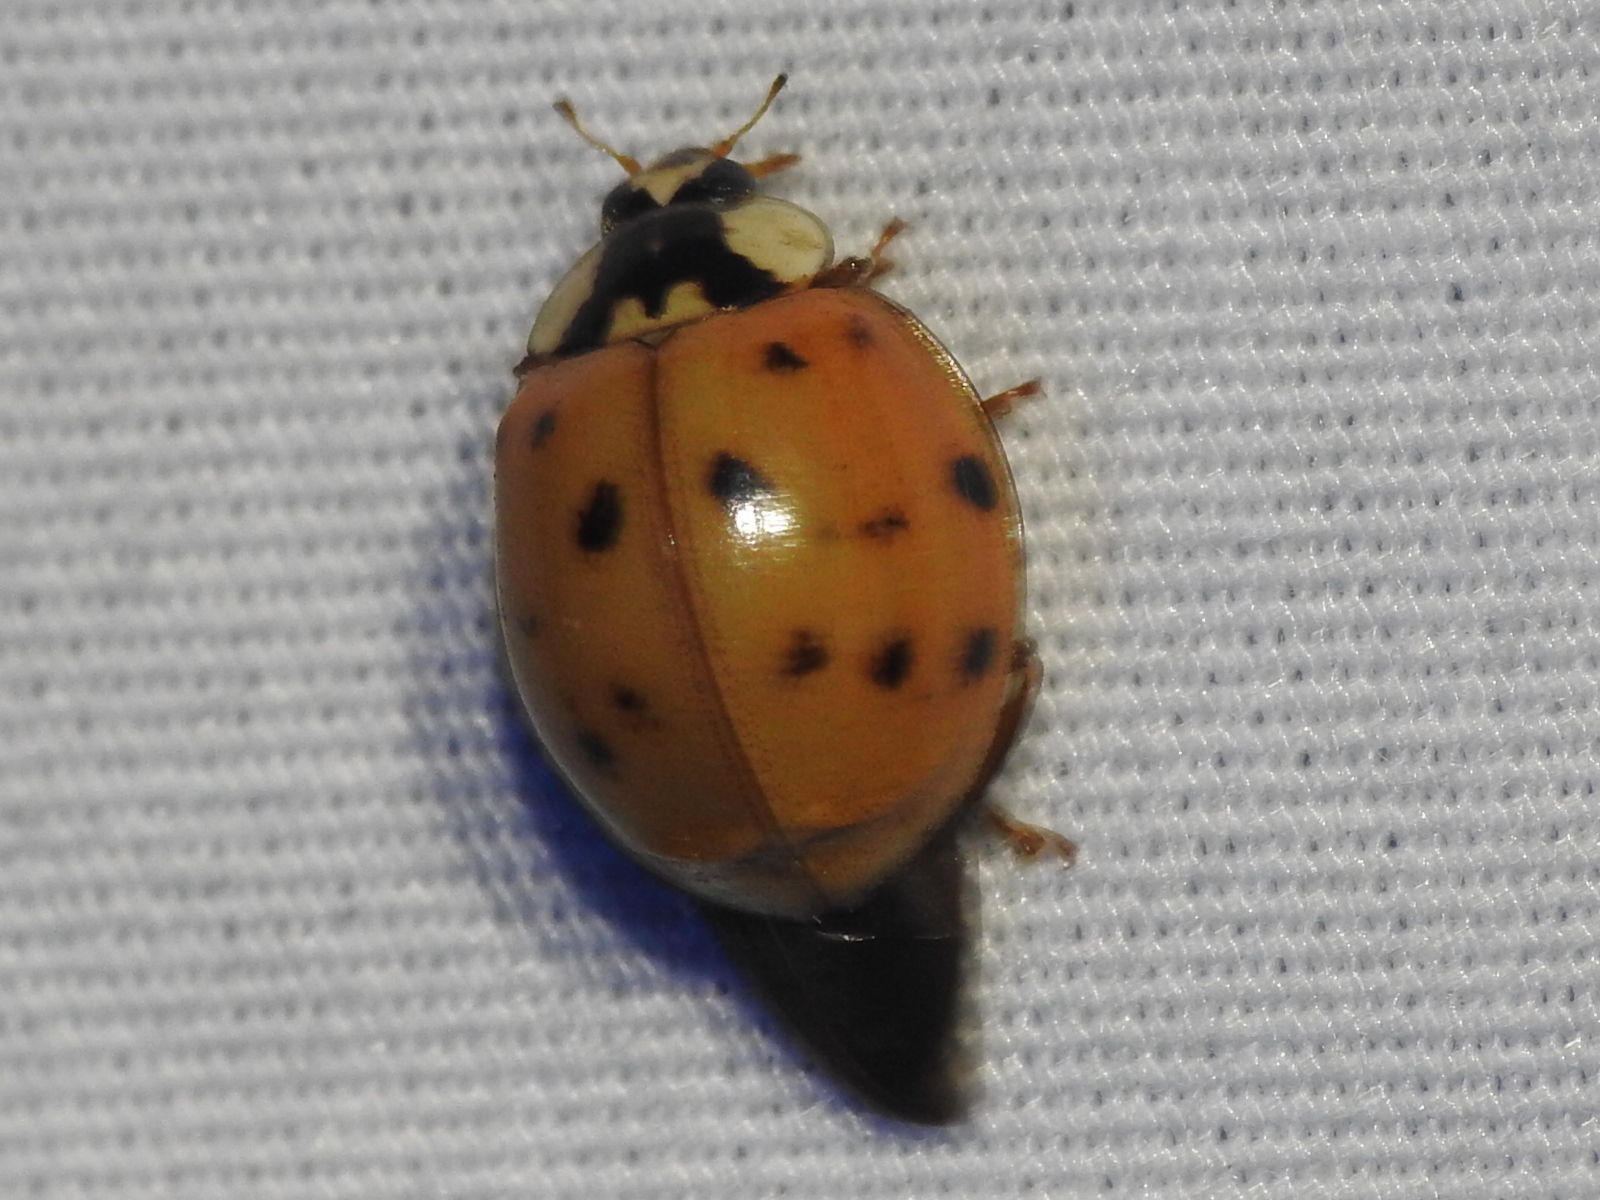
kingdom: Animalia
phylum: Arthropoda
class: Insecta
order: Coleoptera
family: Coccinellidae
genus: Harmonia
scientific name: Harmonia axyridis
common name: Harlequin ladybird
